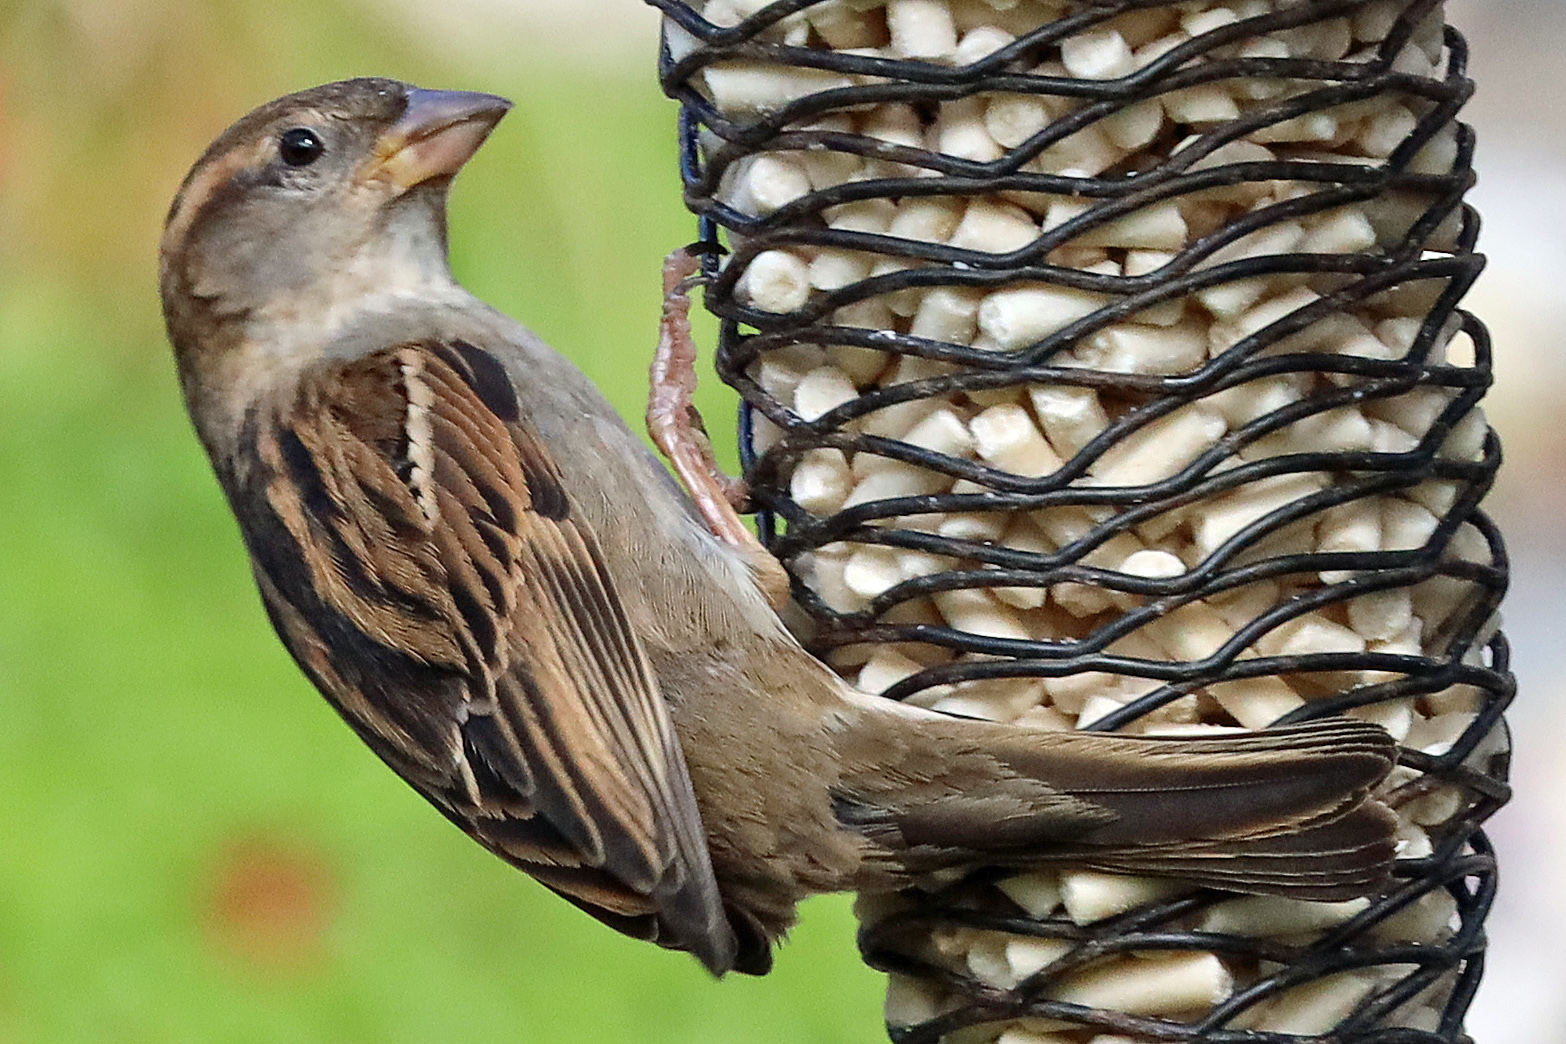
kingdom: Animalia
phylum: Chordata
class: Aves
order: Passeriformes
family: Passeridae
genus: Passer
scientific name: Passer domesticus
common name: House sparrow
